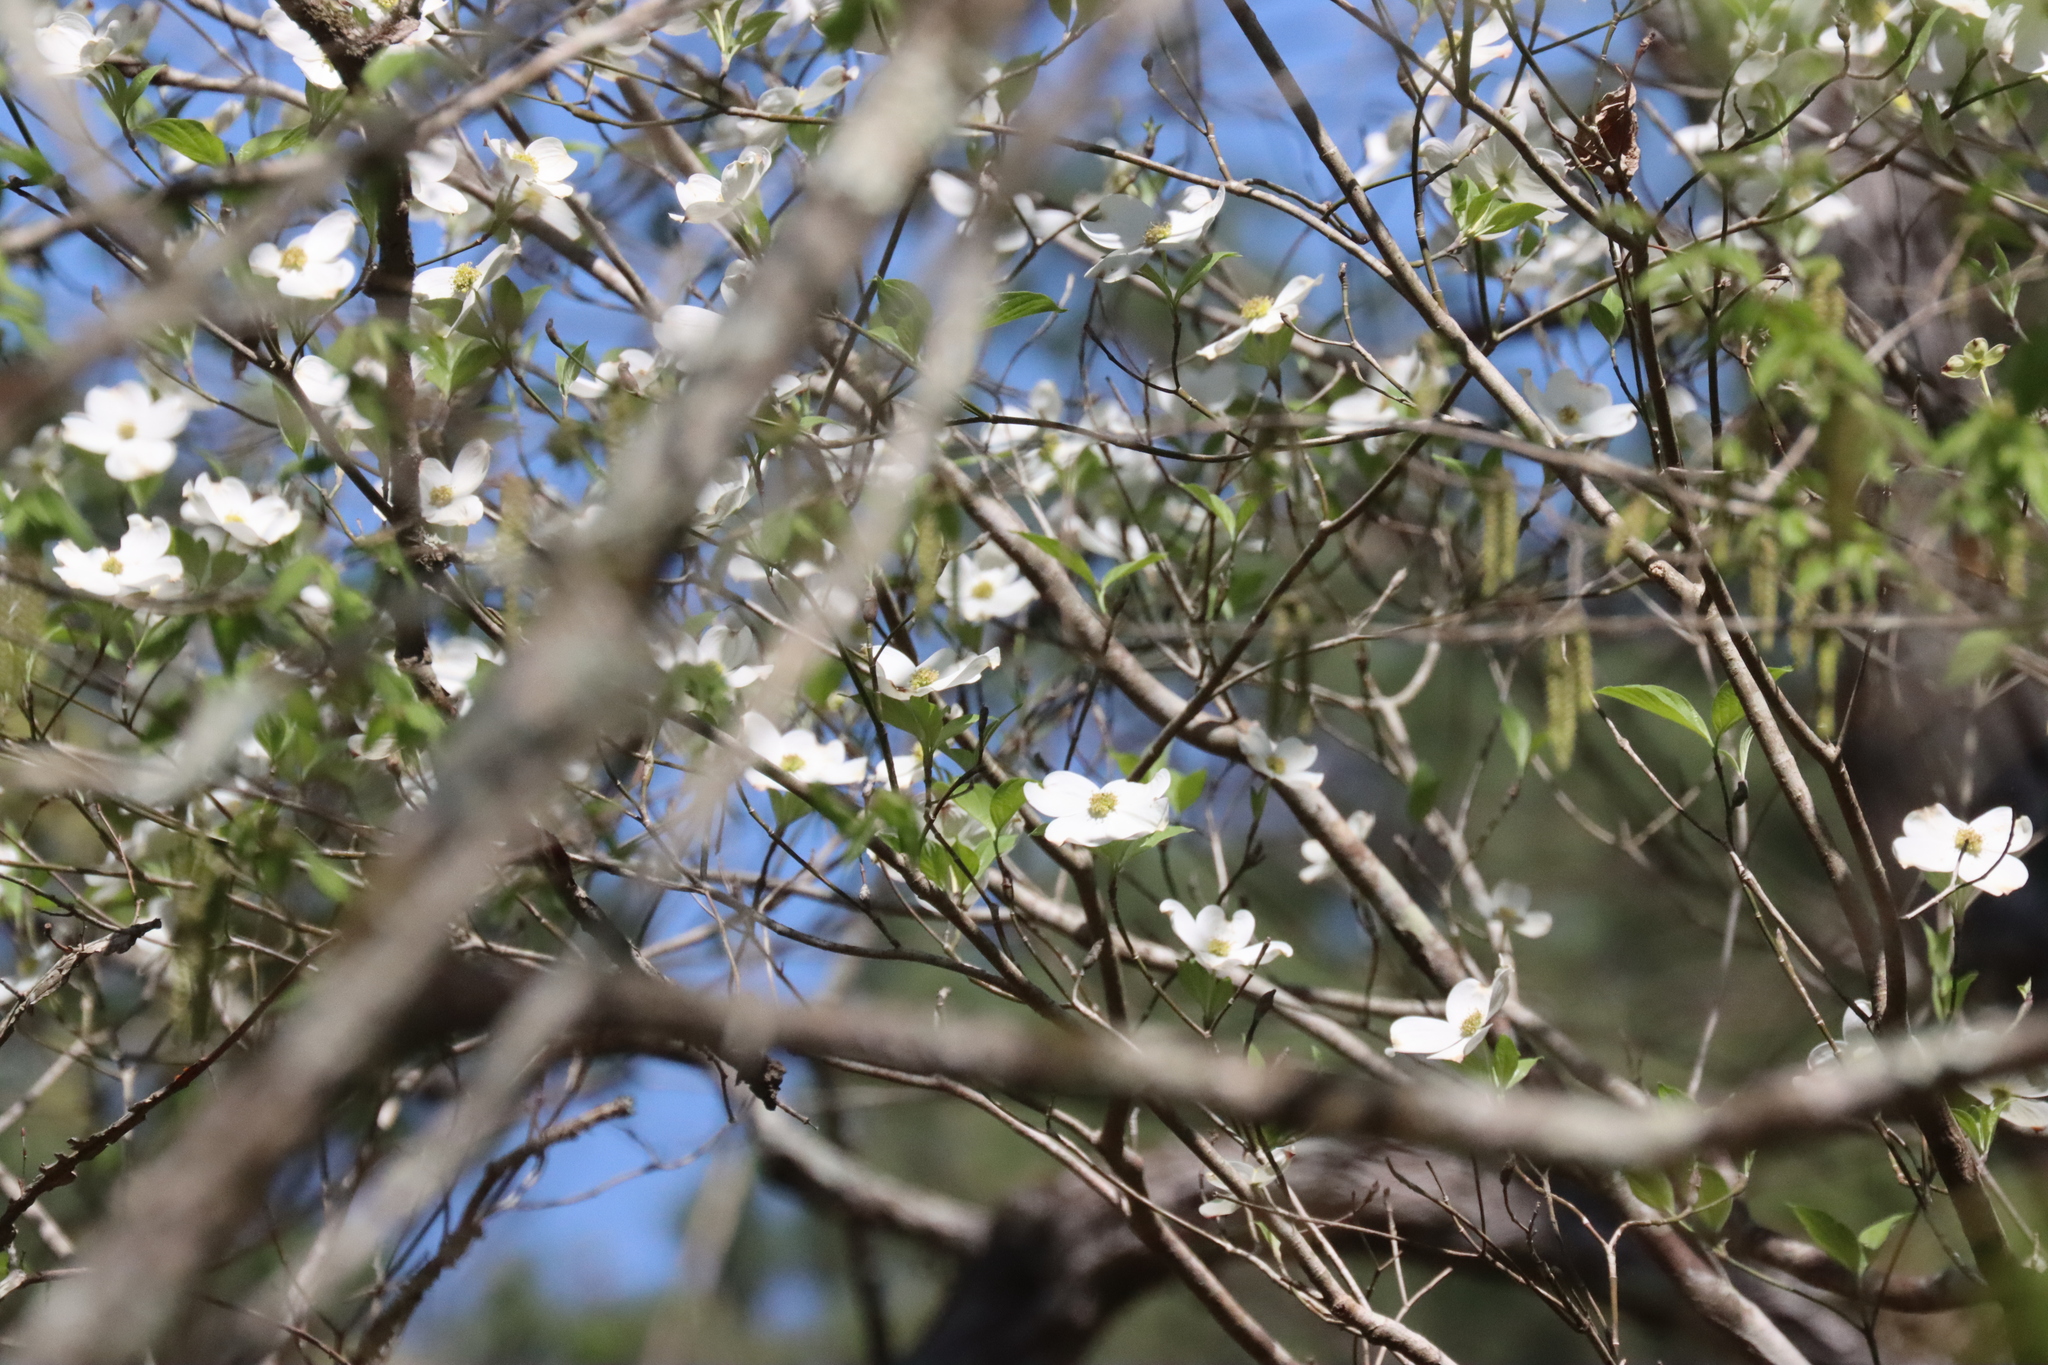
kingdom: Plantae
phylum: Tracheophyta
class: Magnoliopsida
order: Cornales
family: Cornaceae
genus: Cornus
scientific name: Cornus florida
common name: Flowering dogwood
